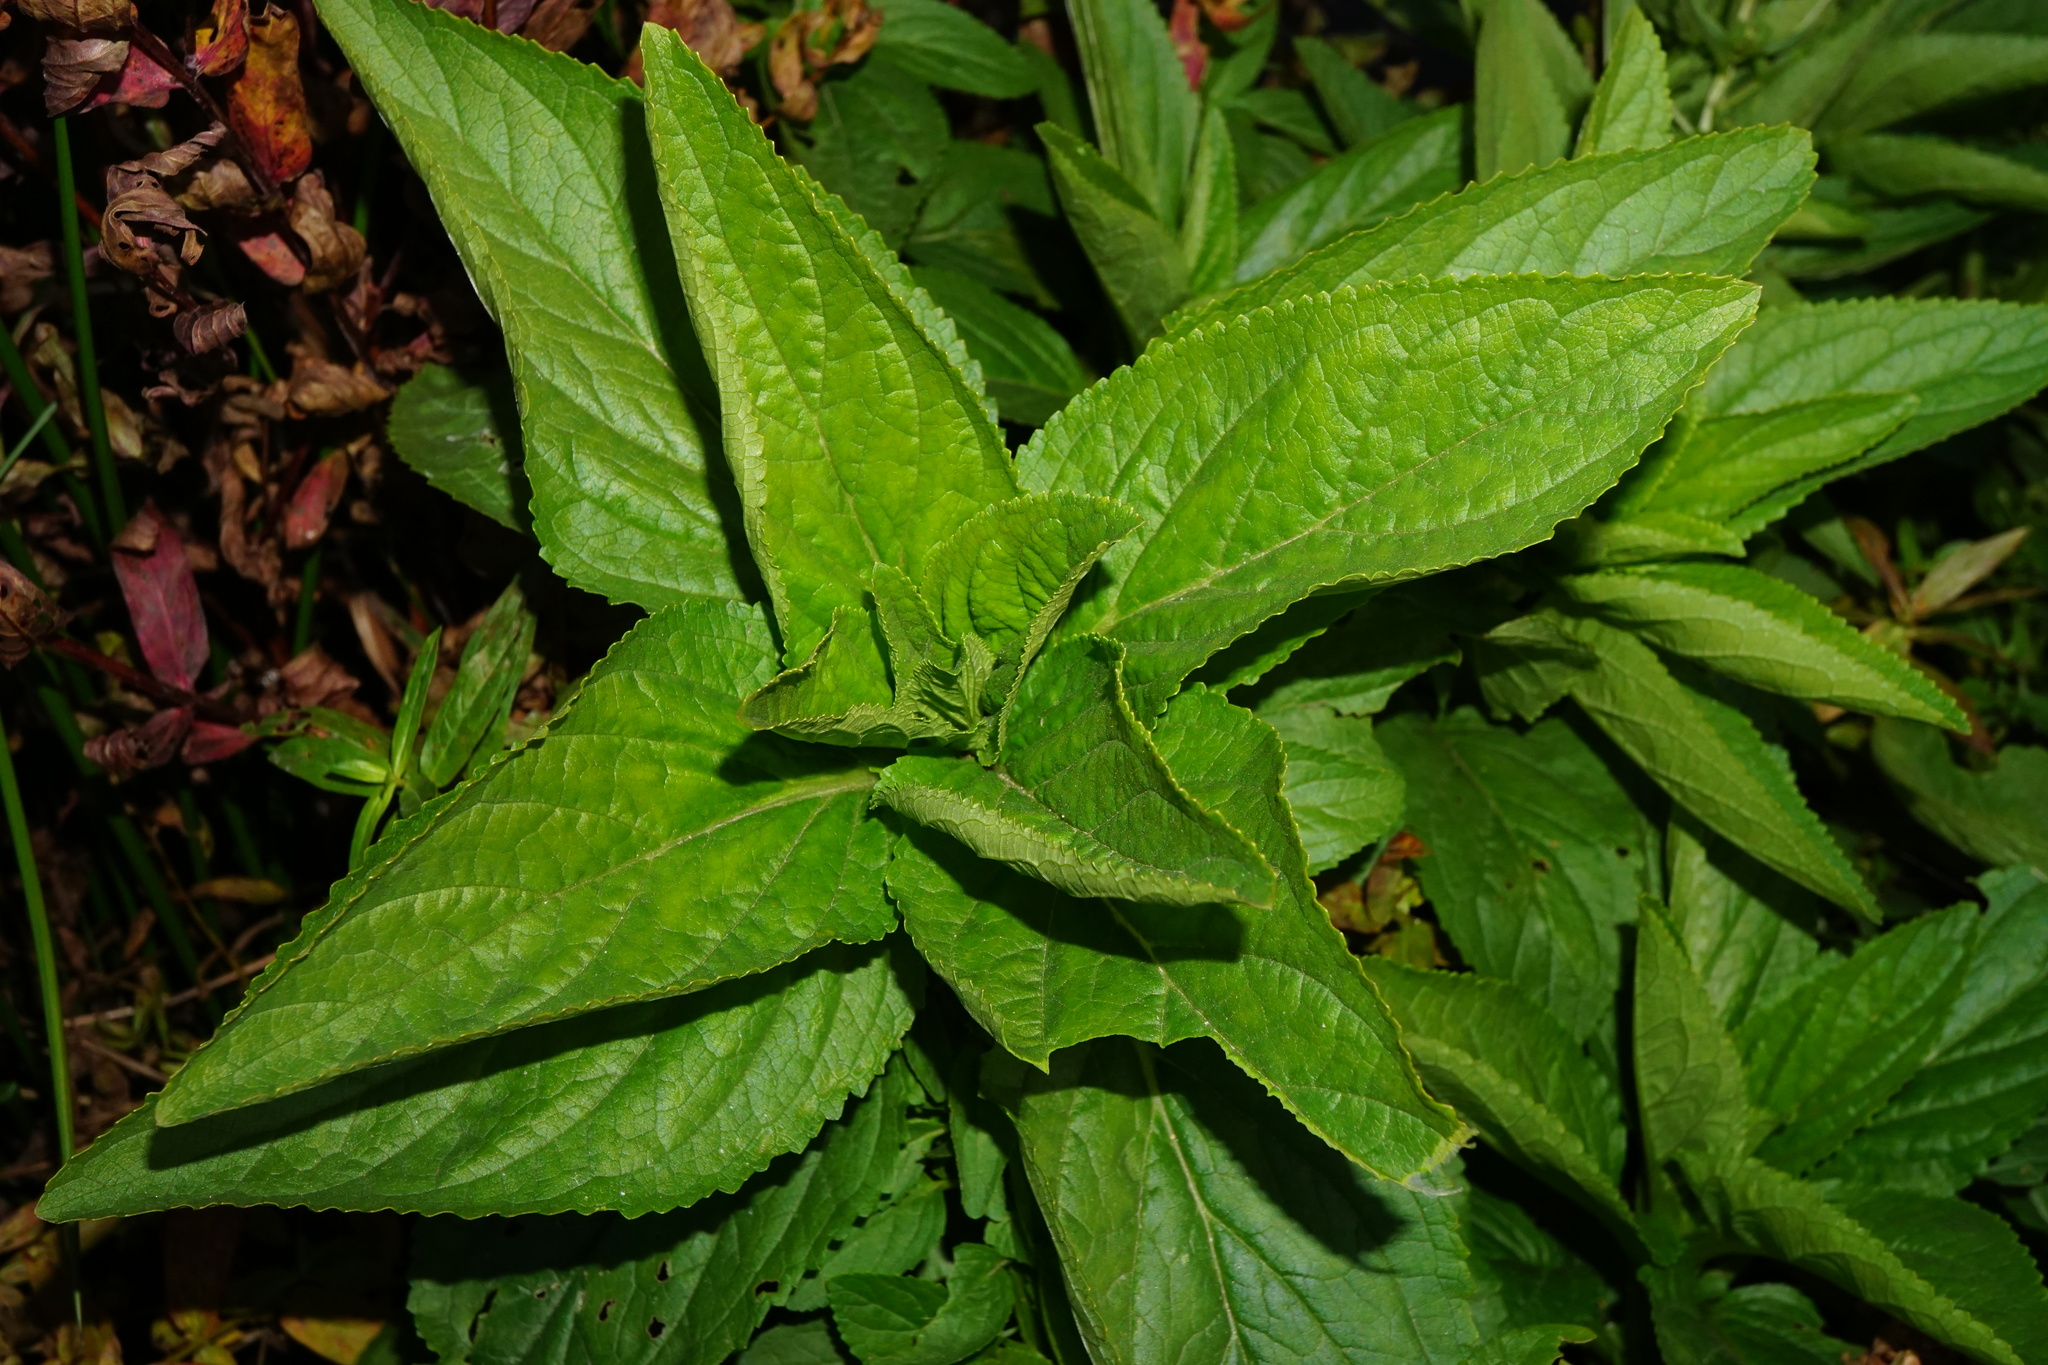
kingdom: Plantae
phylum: Tracheophyta
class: Magnoliopsida
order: Lamiales
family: Scrophulariaceae
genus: Scrophularia
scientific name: Scrophularia umbrosa
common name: Green figwort
